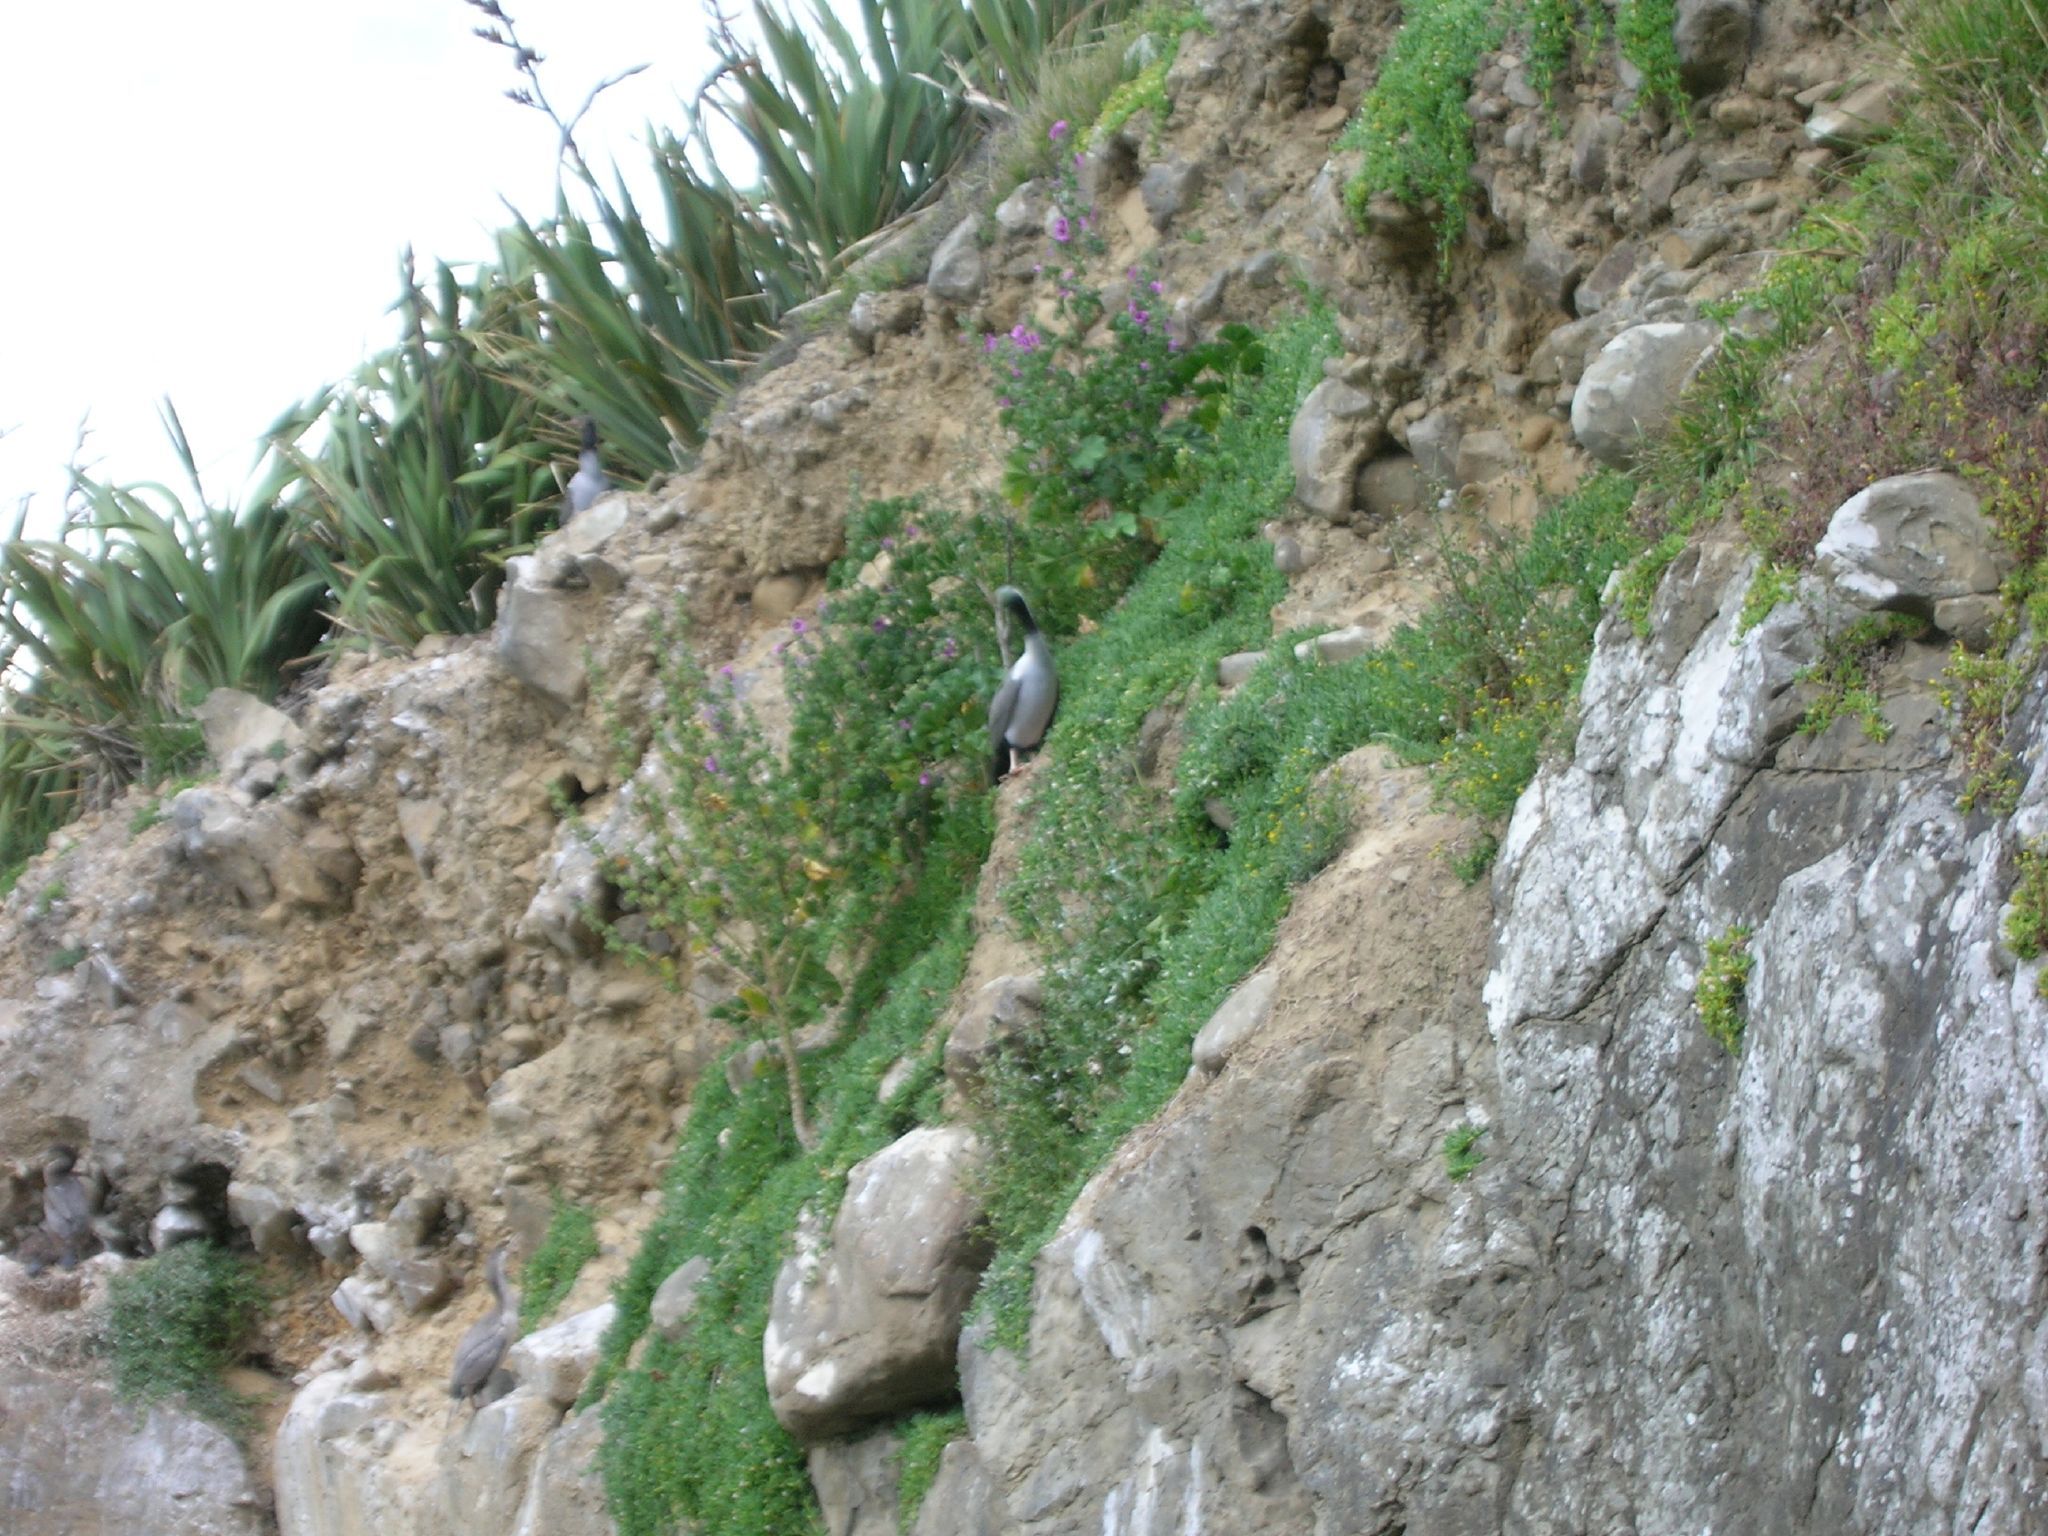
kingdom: Animalia
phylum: Chordata
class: Aves
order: Suliformes
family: Phalacrocoracidae
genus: Phalacrocorax
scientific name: Phalacrocorax punctatus
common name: Spotted shag
